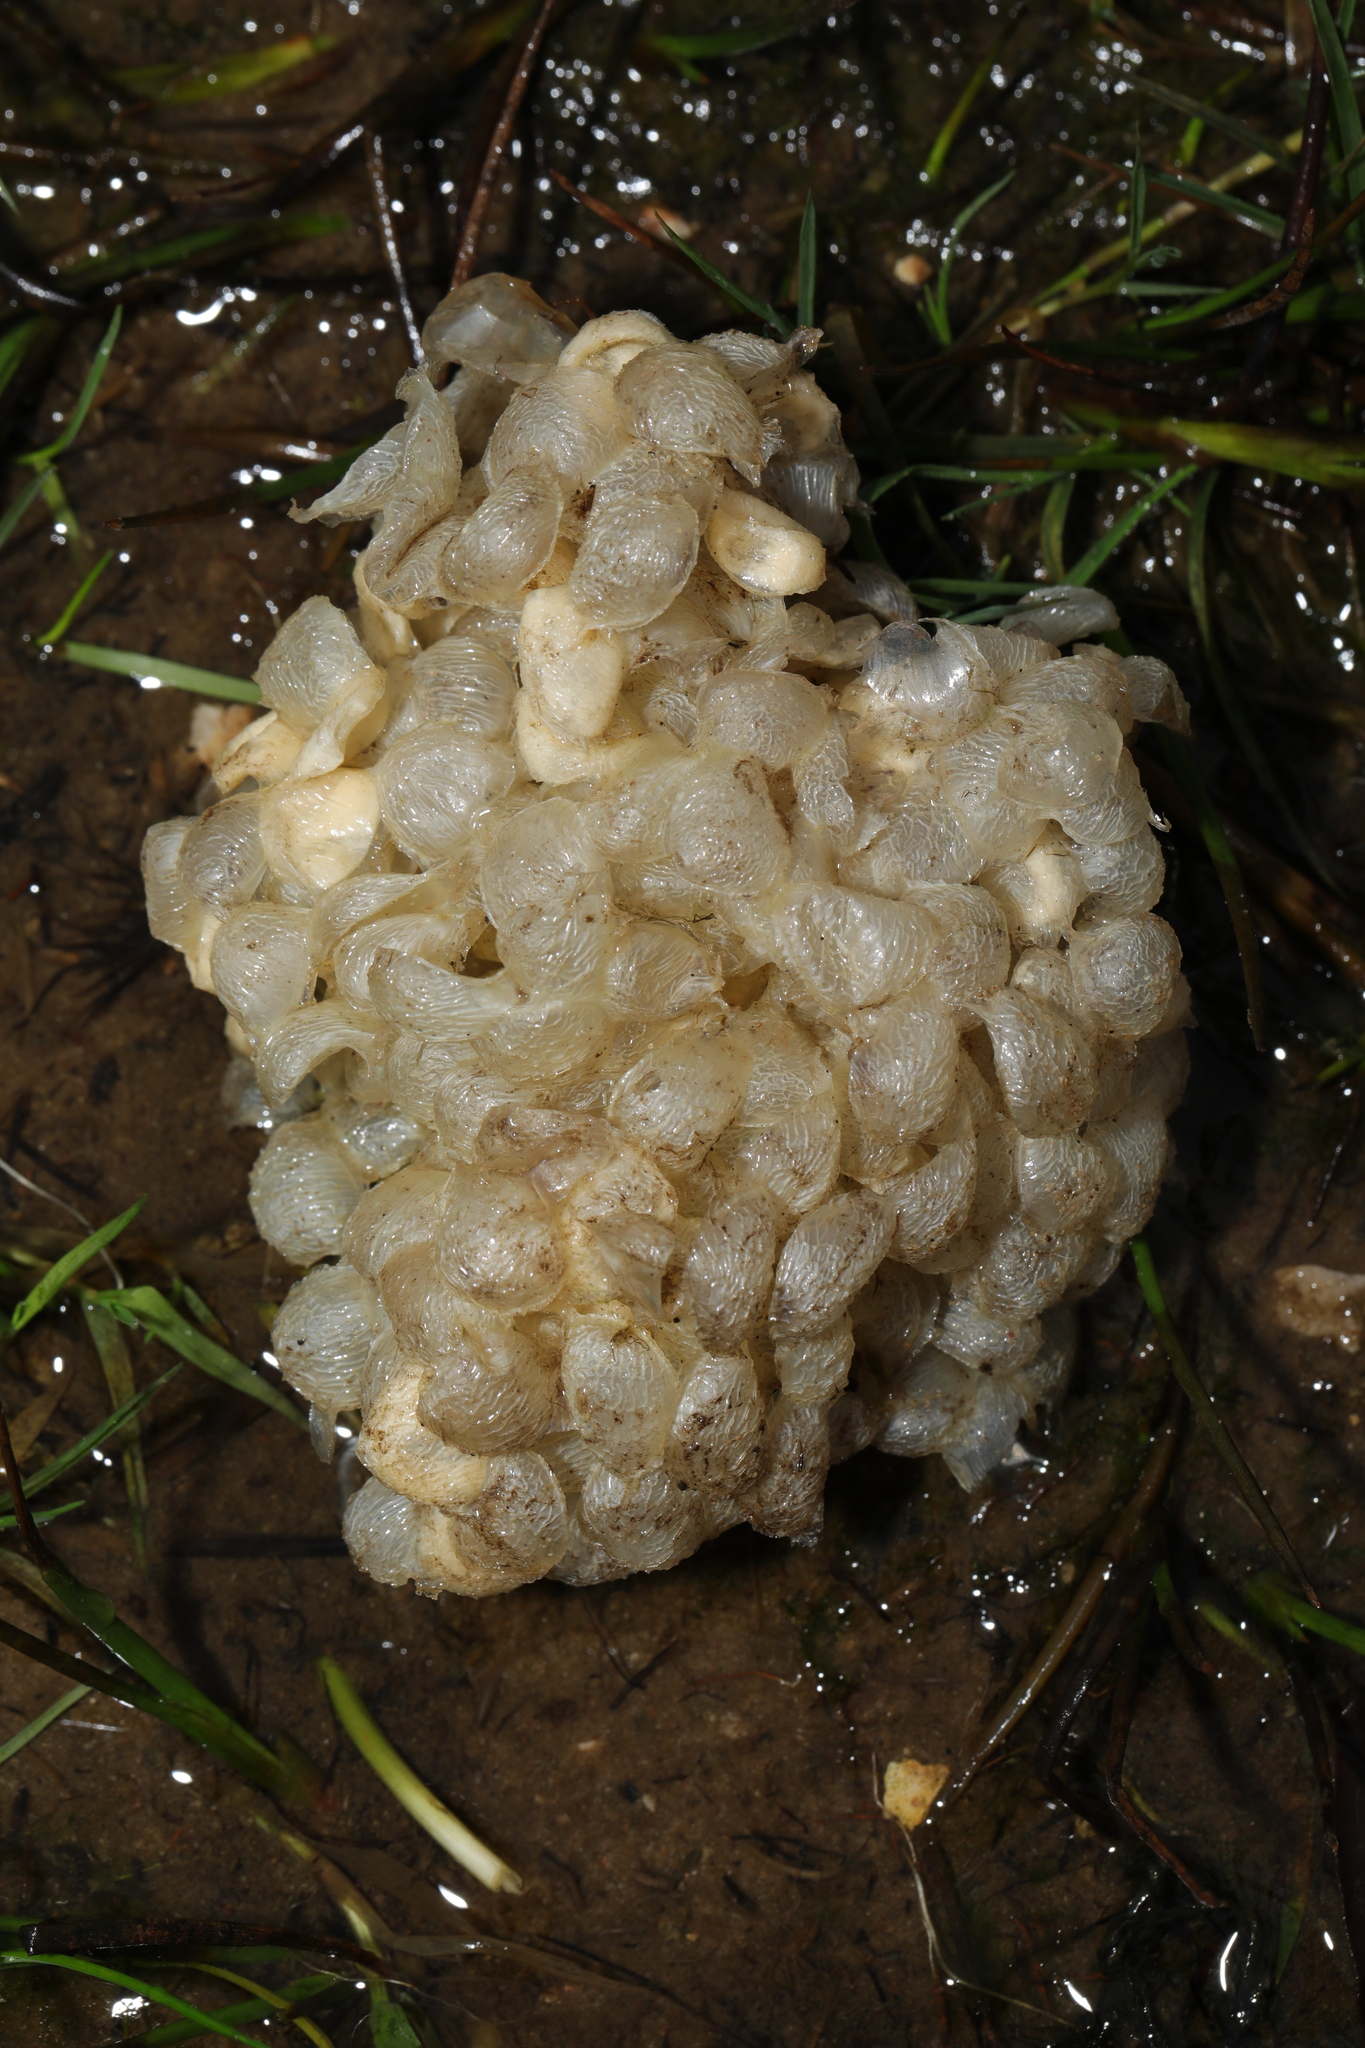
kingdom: Animalia
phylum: Mollusca
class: Gastropoda
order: Neogastropoda
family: Buccinidae
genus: Buccinum
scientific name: Buccinum undatum
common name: Common whelk
